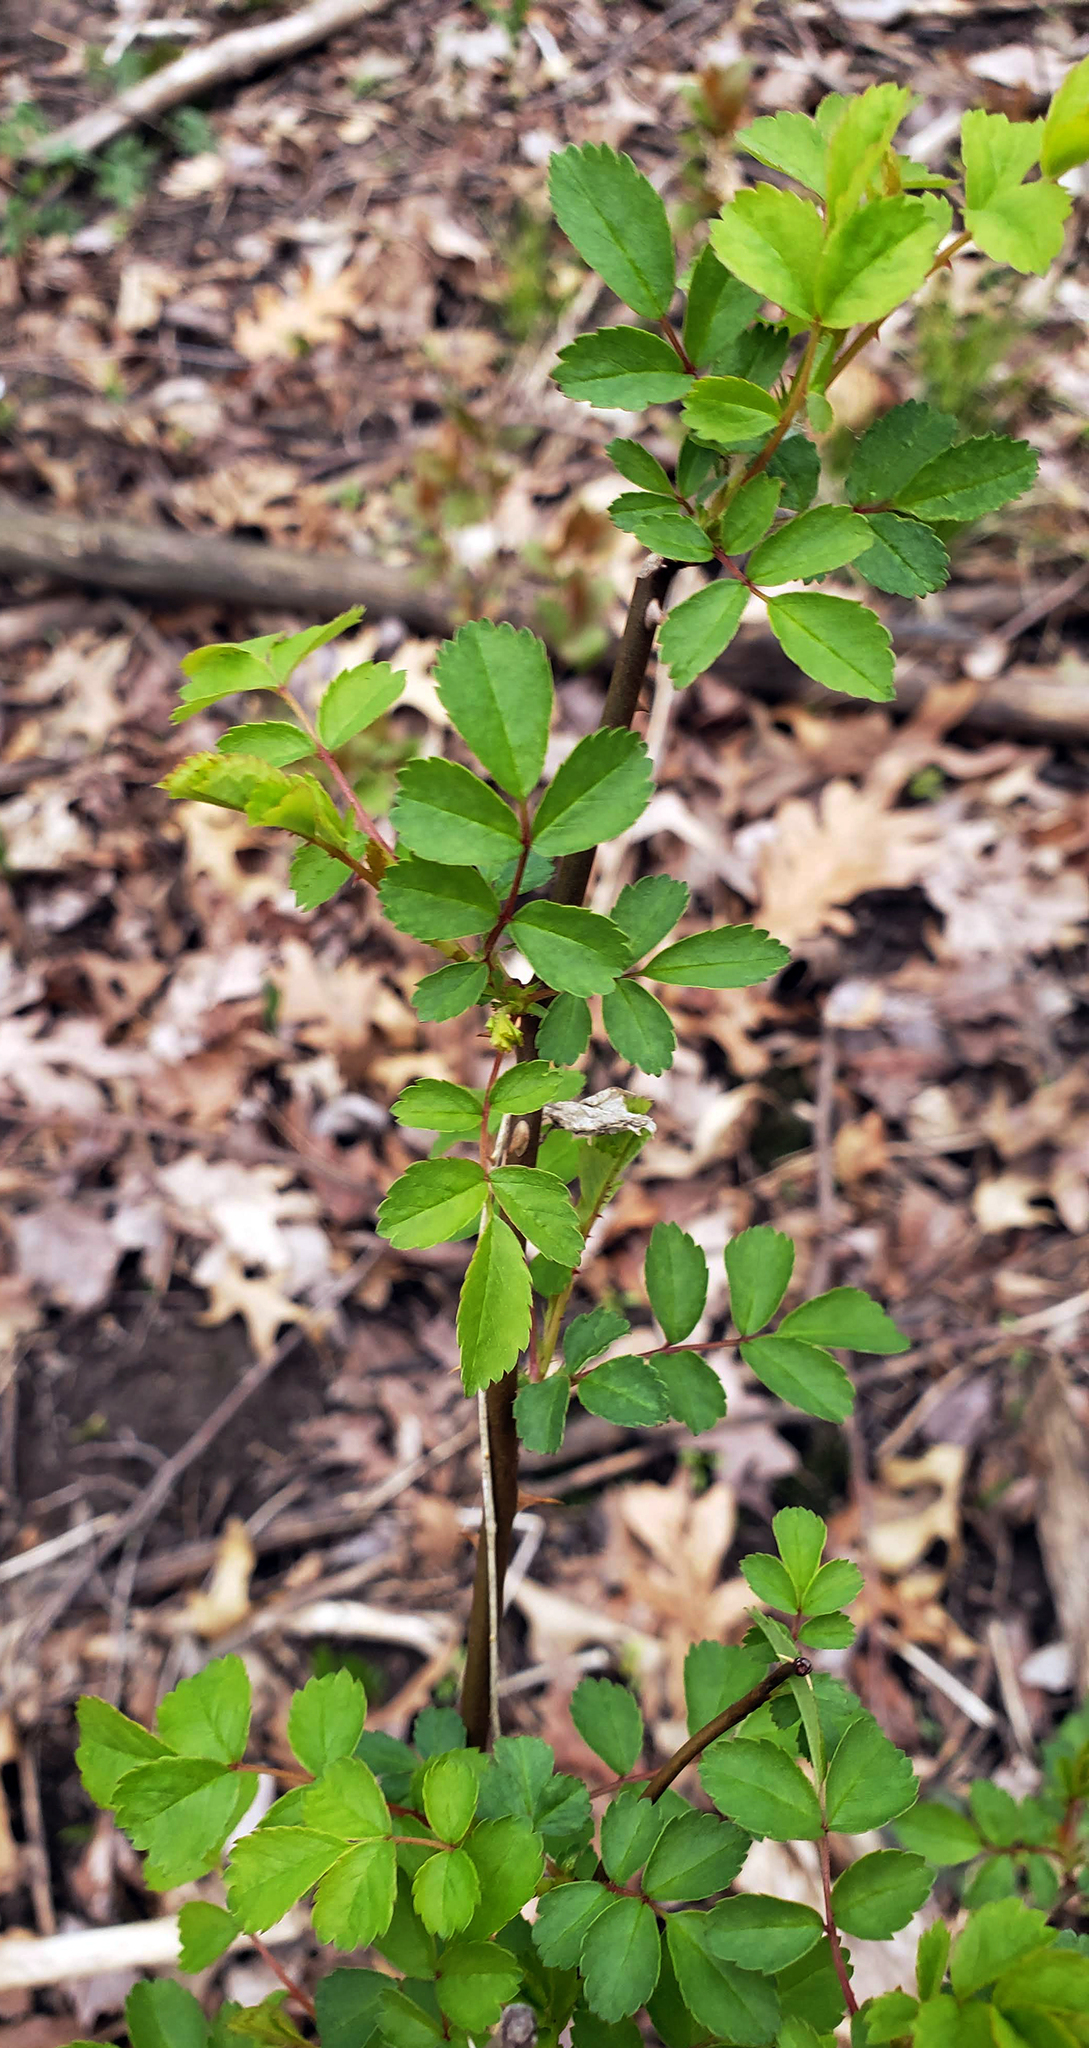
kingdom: Plantae
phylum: Tracheophyta
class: Magnoliopsida
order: Rosales
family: Rosaceae
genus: Rosa
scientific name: Rosa multiflora
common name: Multiflora rose
